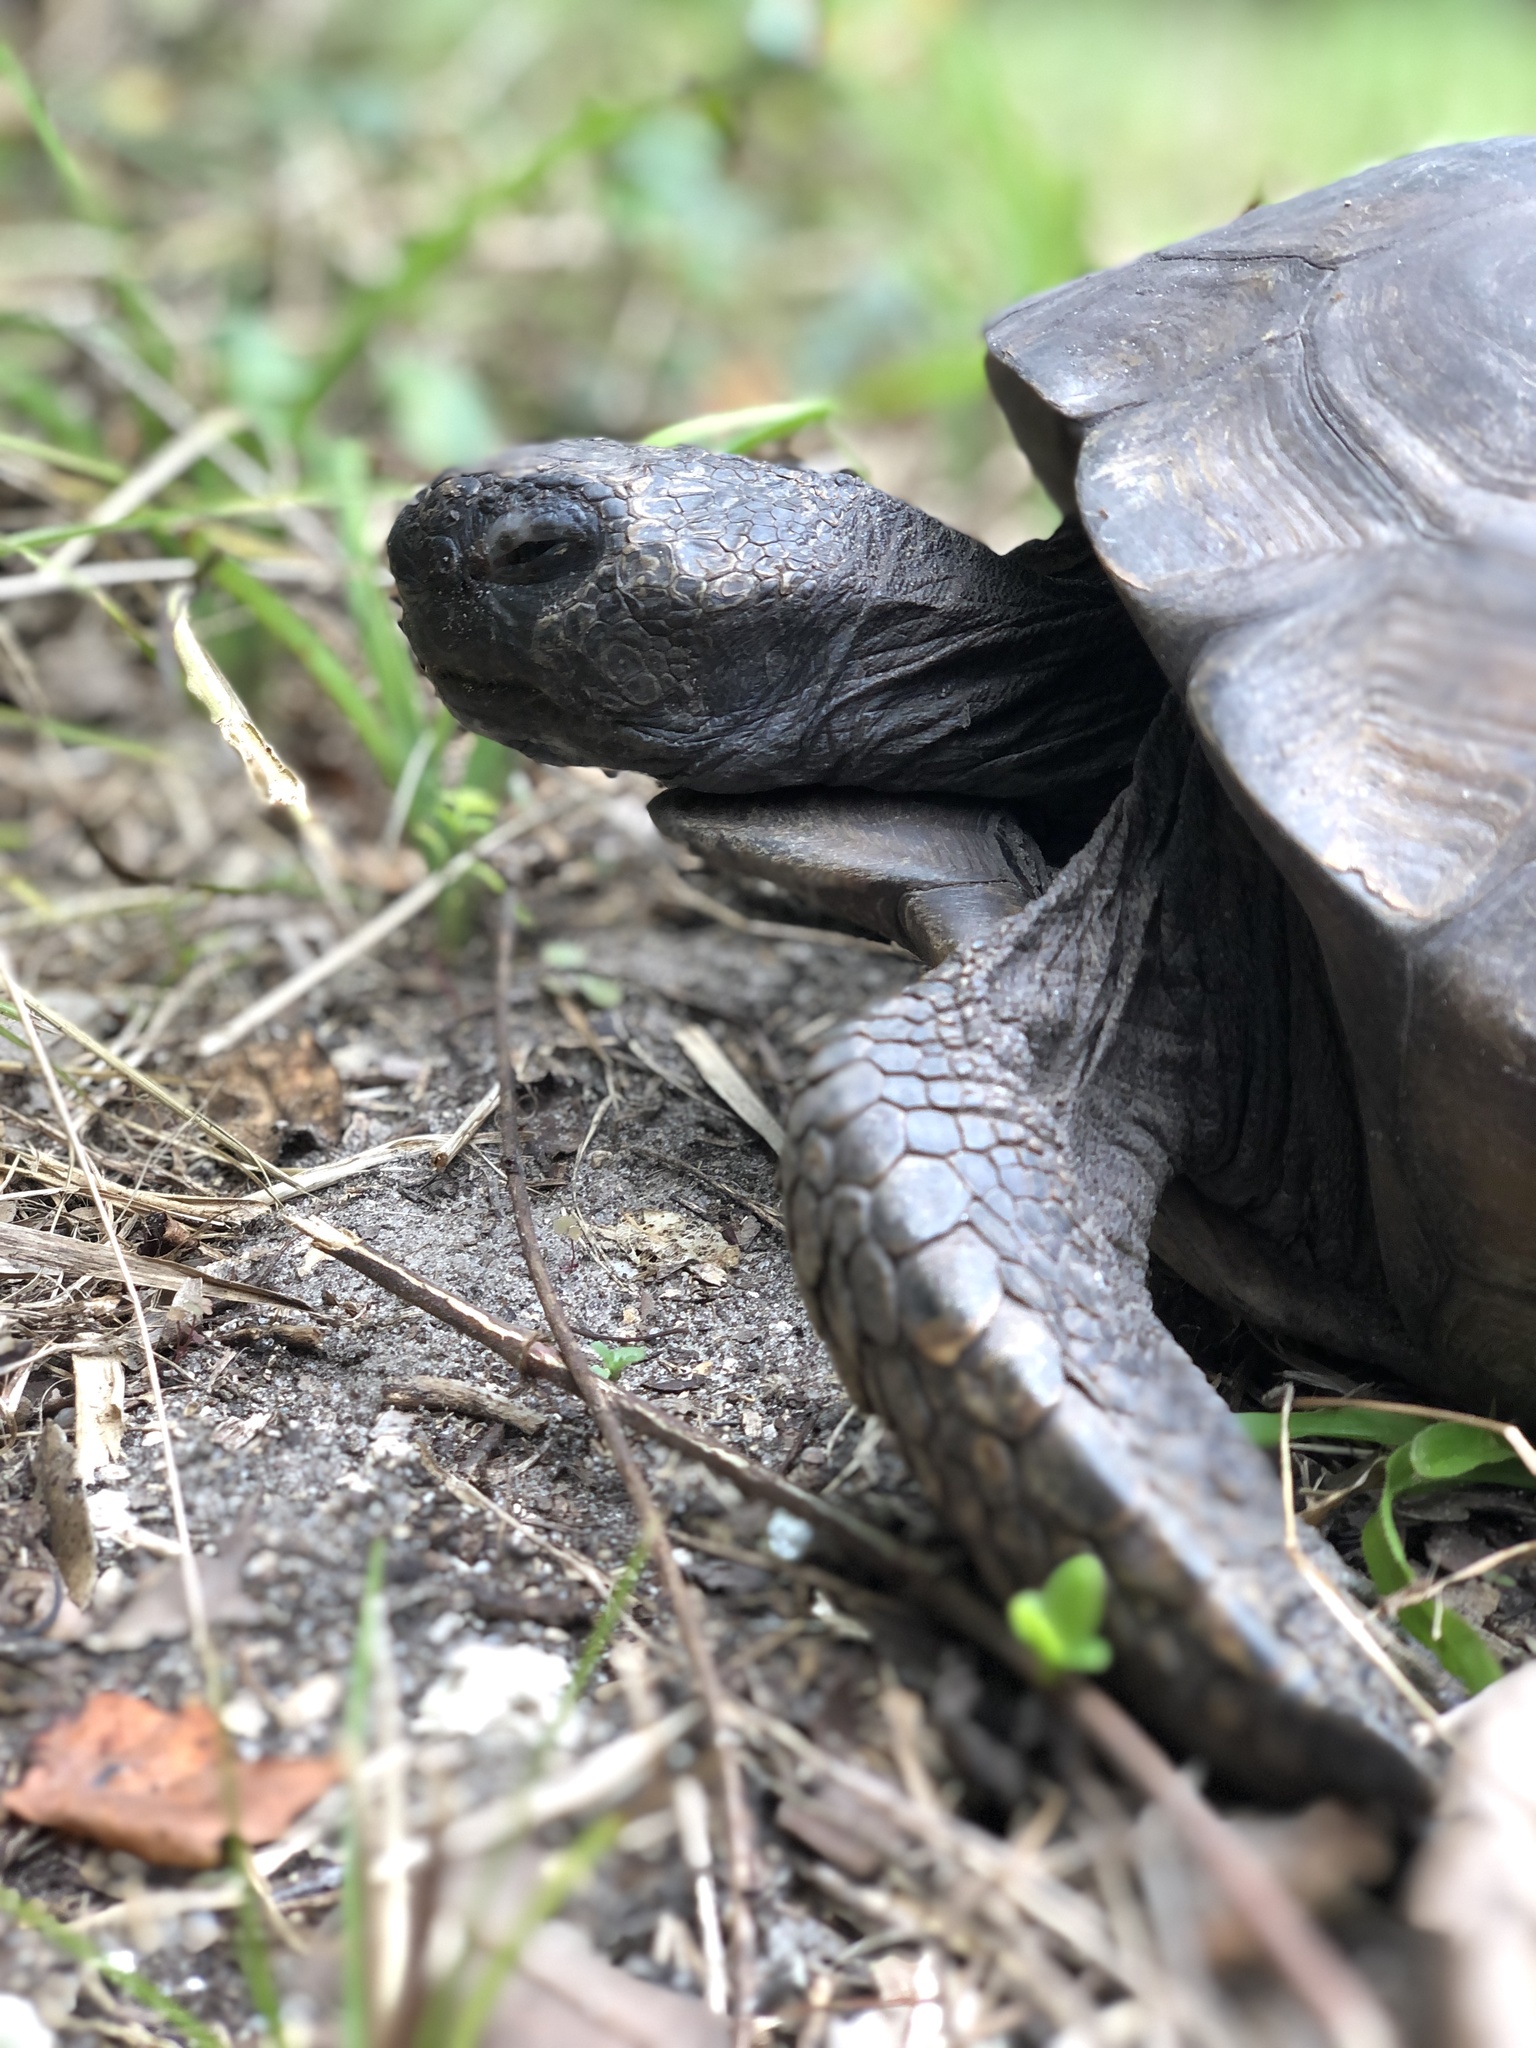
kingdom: Animalia
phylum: Chordata
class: Testudines
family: Testudinidae
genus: Gopherus
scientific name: Gopherus polyphemus
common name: Florida gopher tortoise
